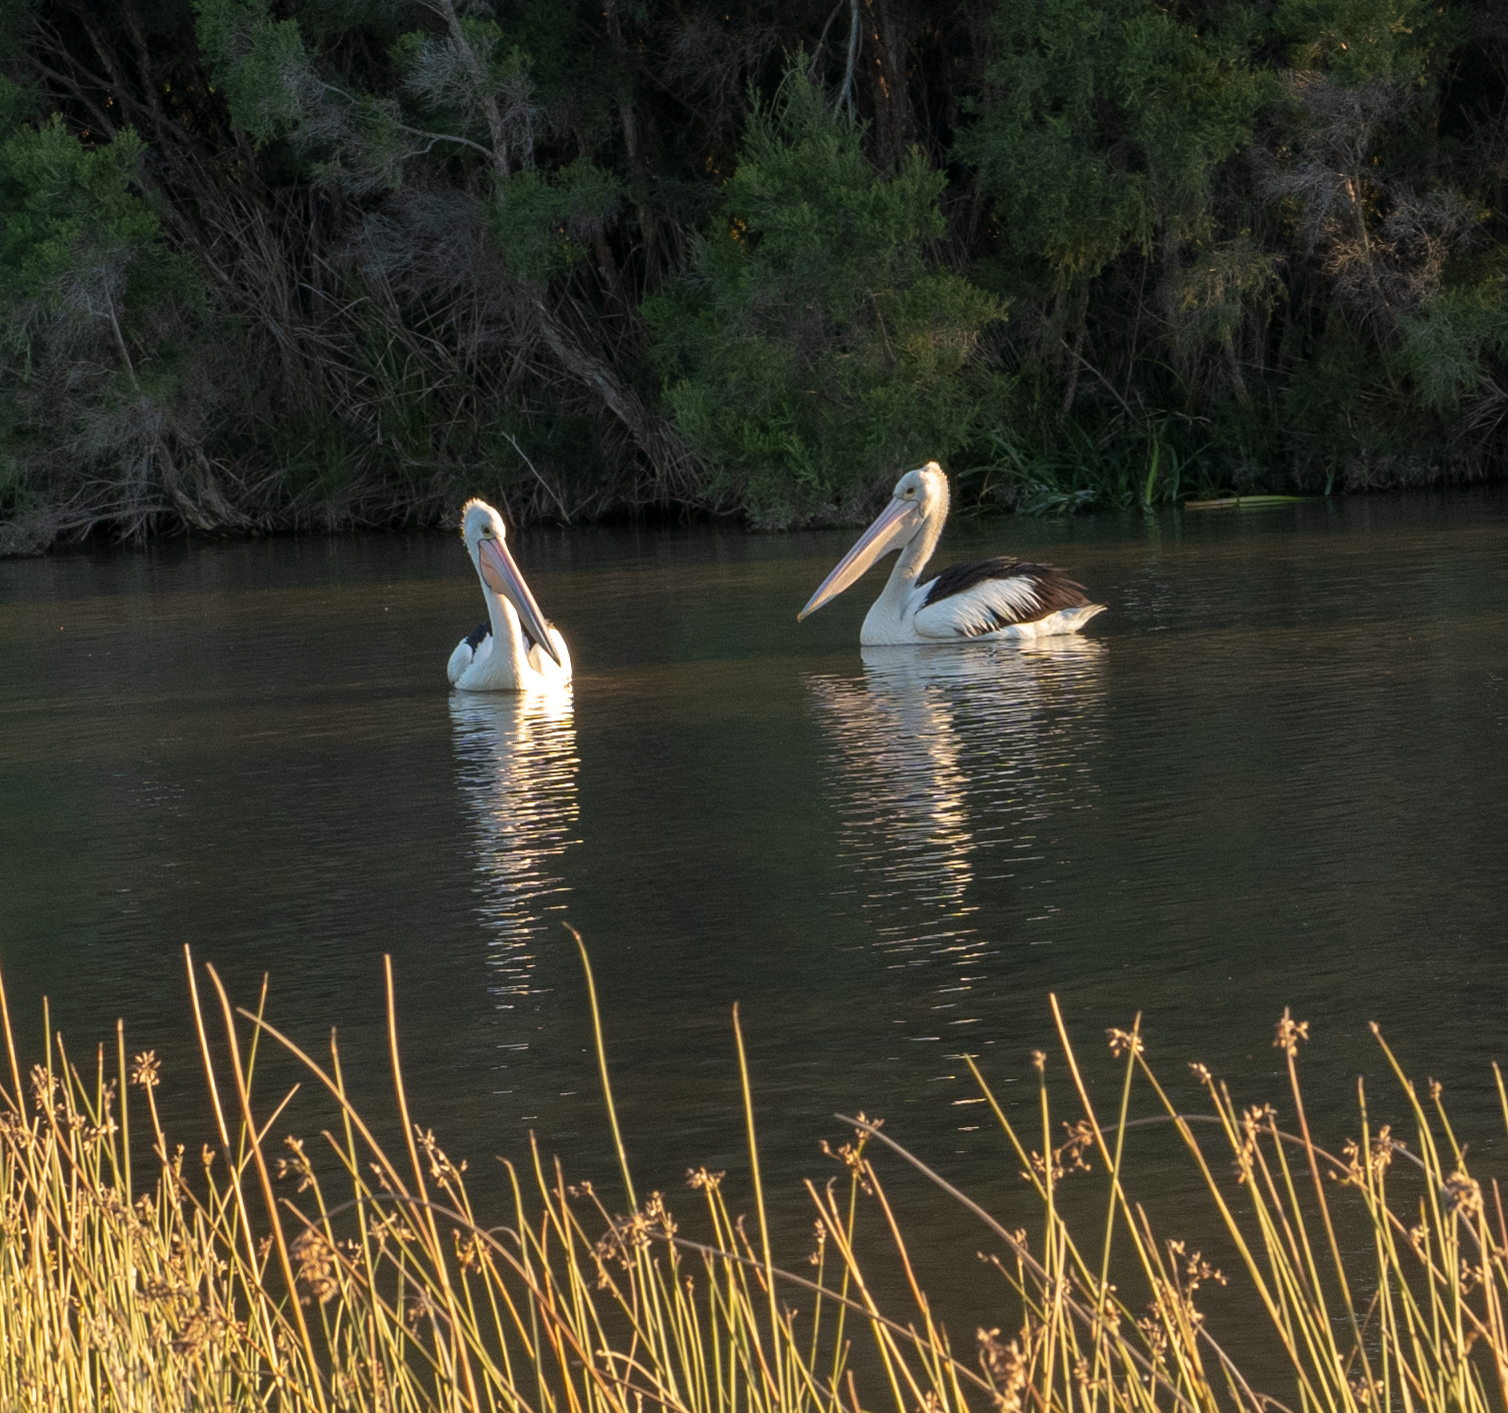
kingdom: Animalia
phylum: Chordata
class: Aves
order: Pelecaniformes
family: Pelecanidae
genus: Pelecanus
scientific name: Pelecanus conspicillatus
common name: Australian pelican
